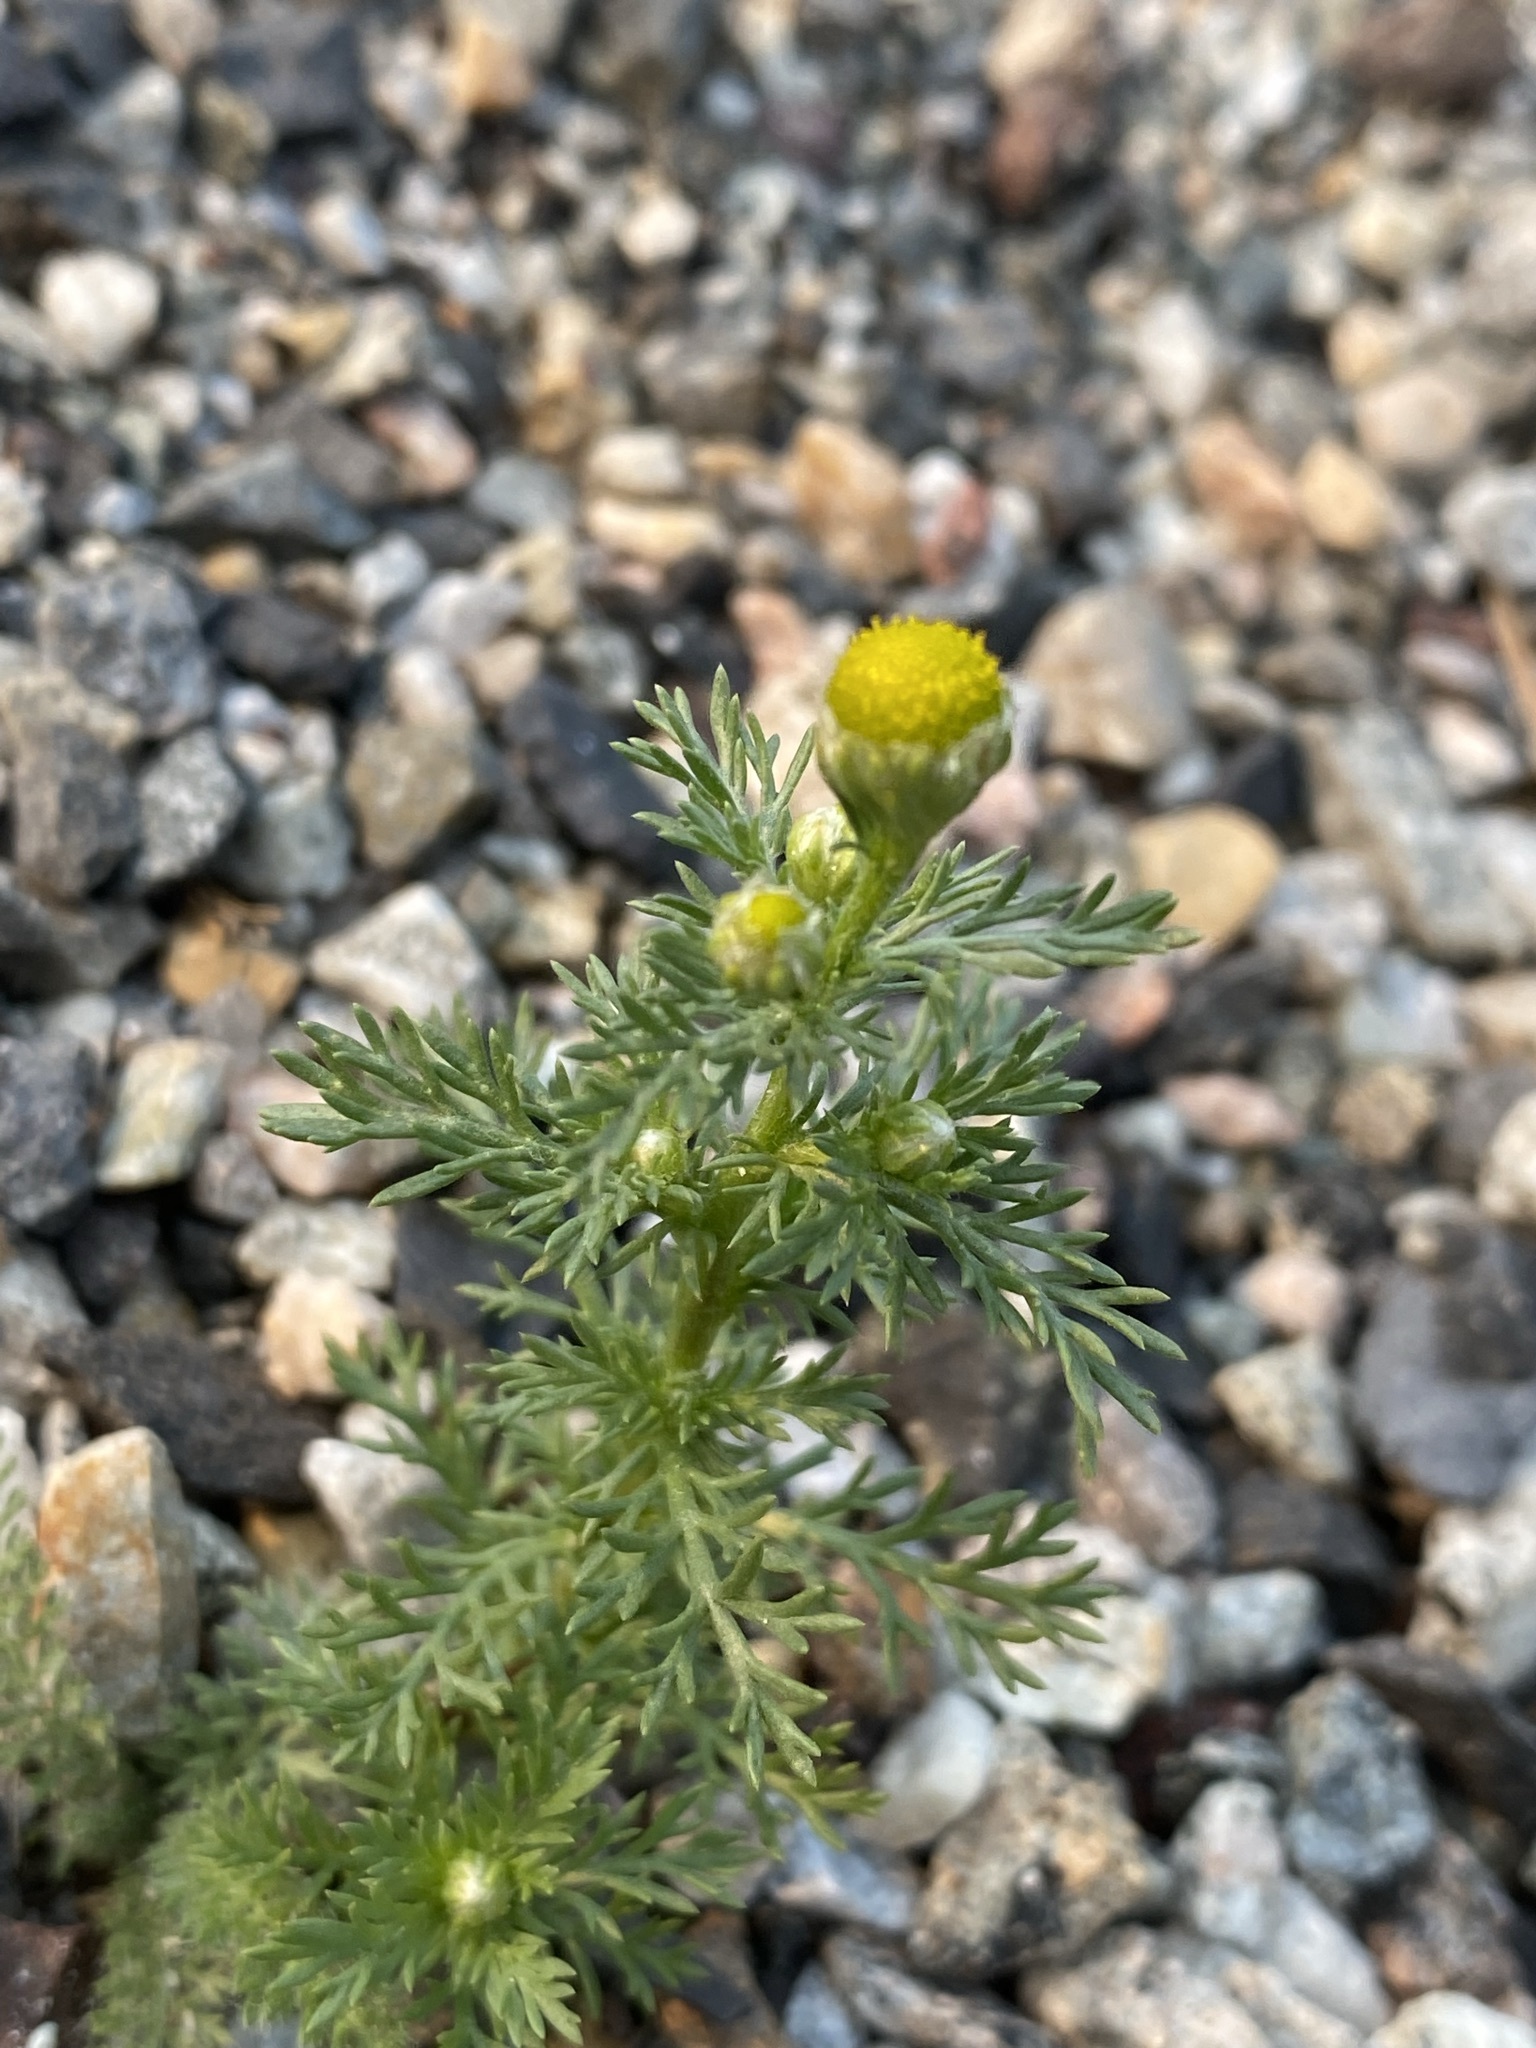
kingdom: Plantae
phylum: Tracheophyta
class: Magnoliopsida
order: Asterales
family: Asteraceae
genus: Matricaria
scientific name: Matricaria discoidea
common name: Disc mayweed
